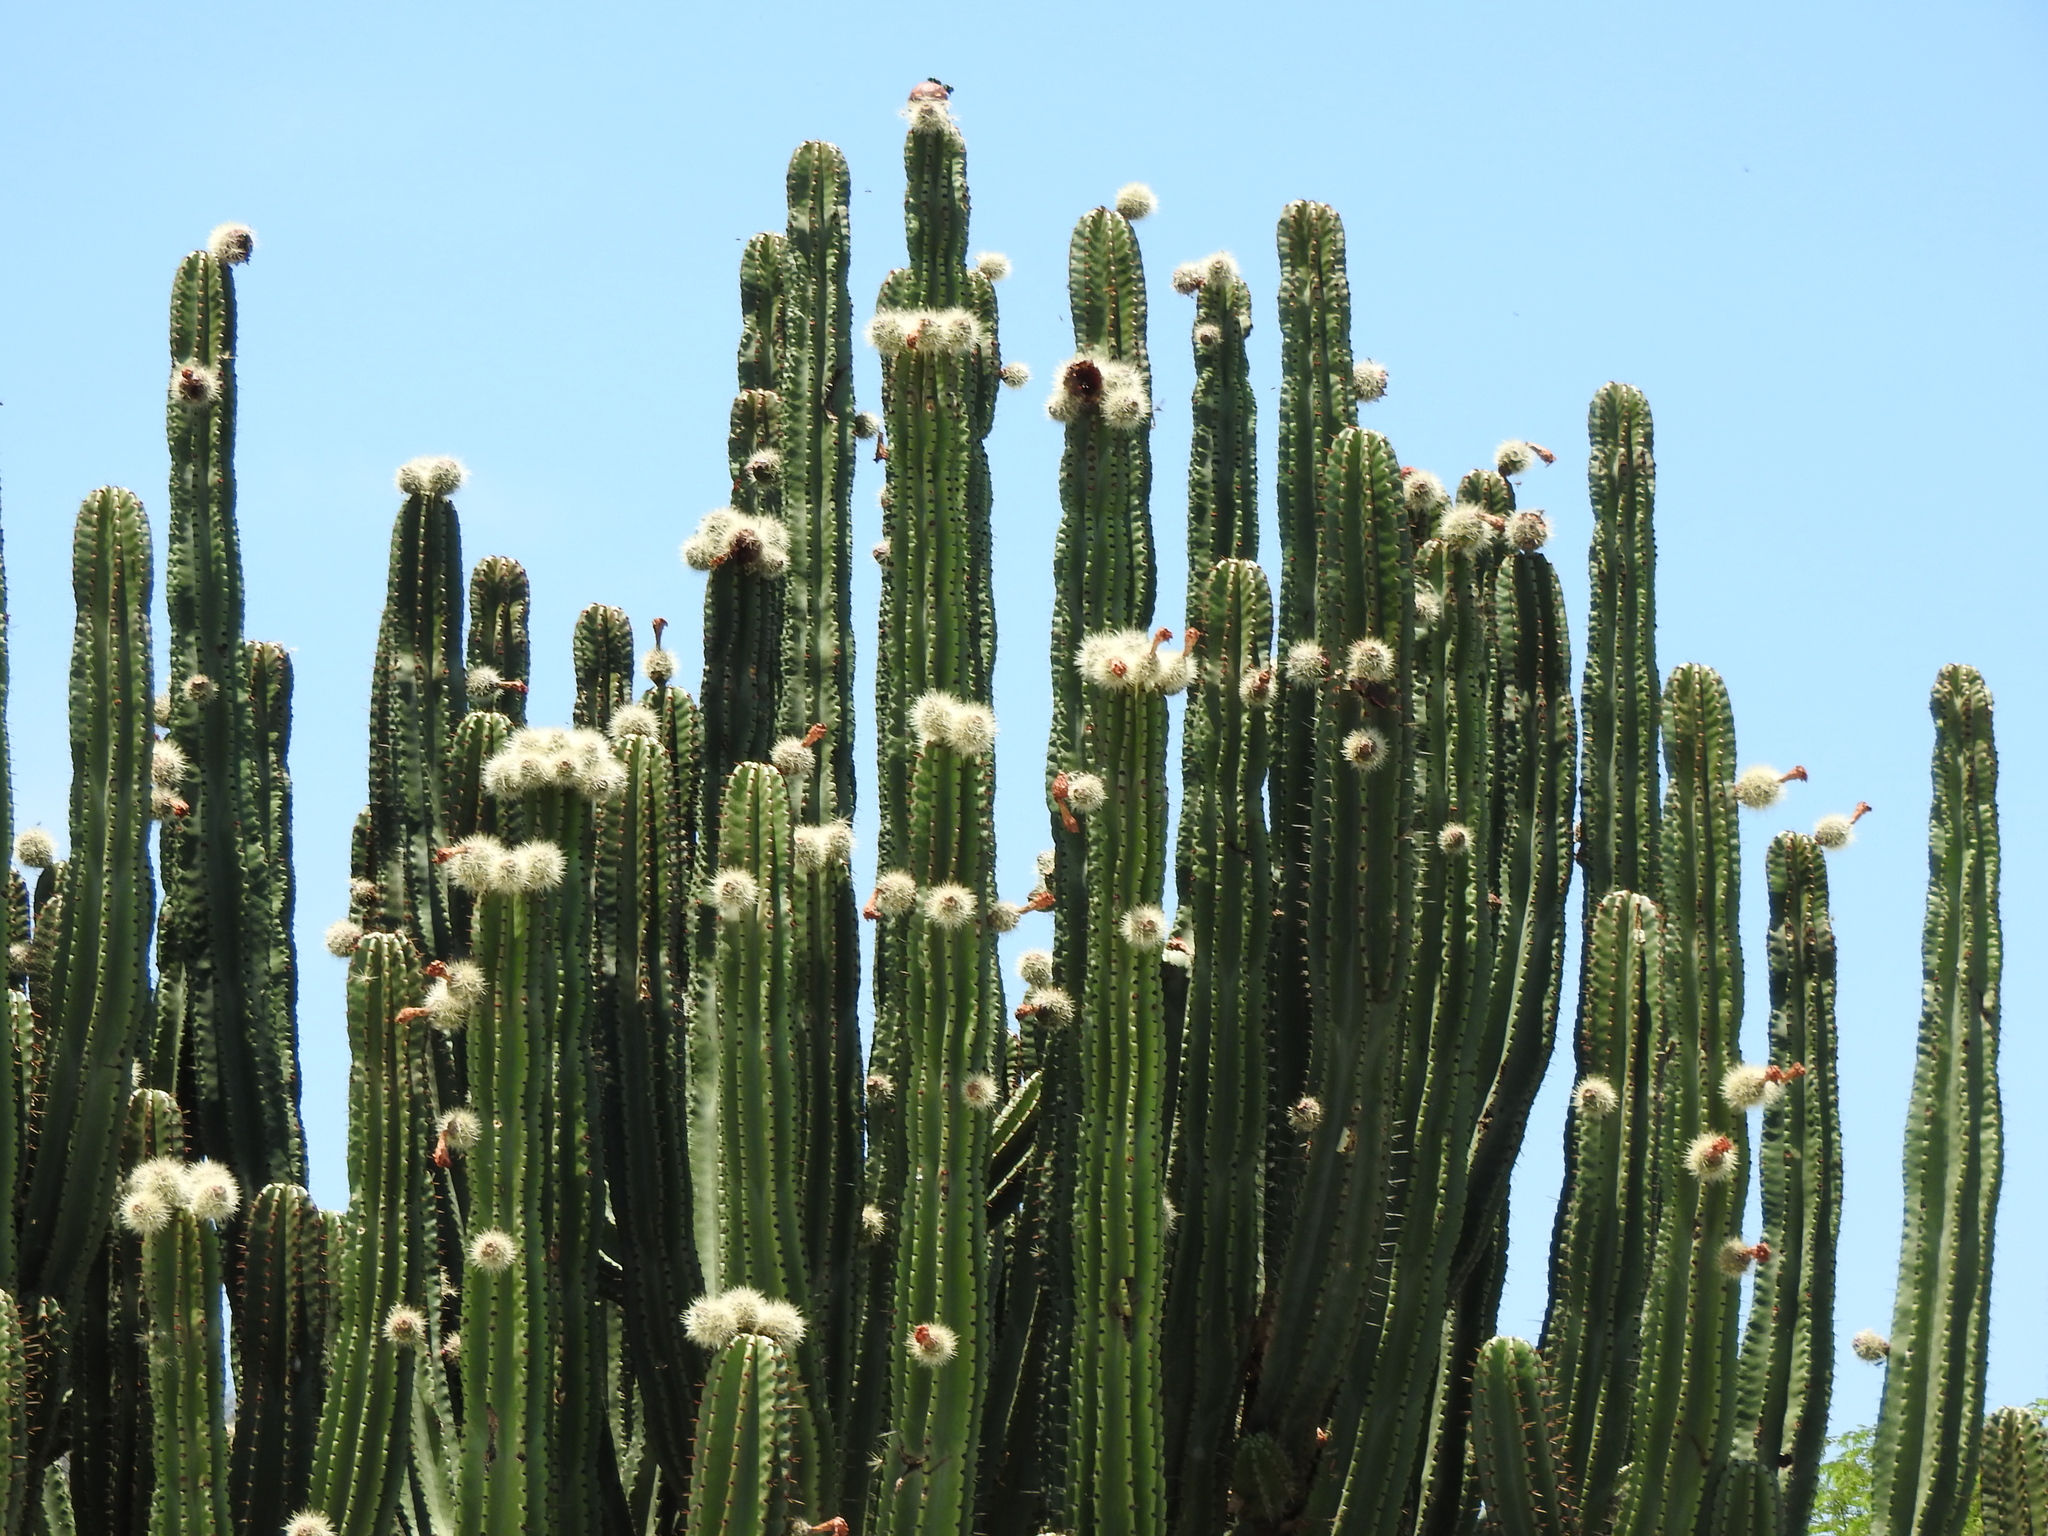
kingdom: Plantae
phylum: Tracheophyta
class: Magnoliopsida
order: Caryophyllales
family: Cactaceae
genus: Stenocereus
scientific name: Stenocereus queretaroensis
